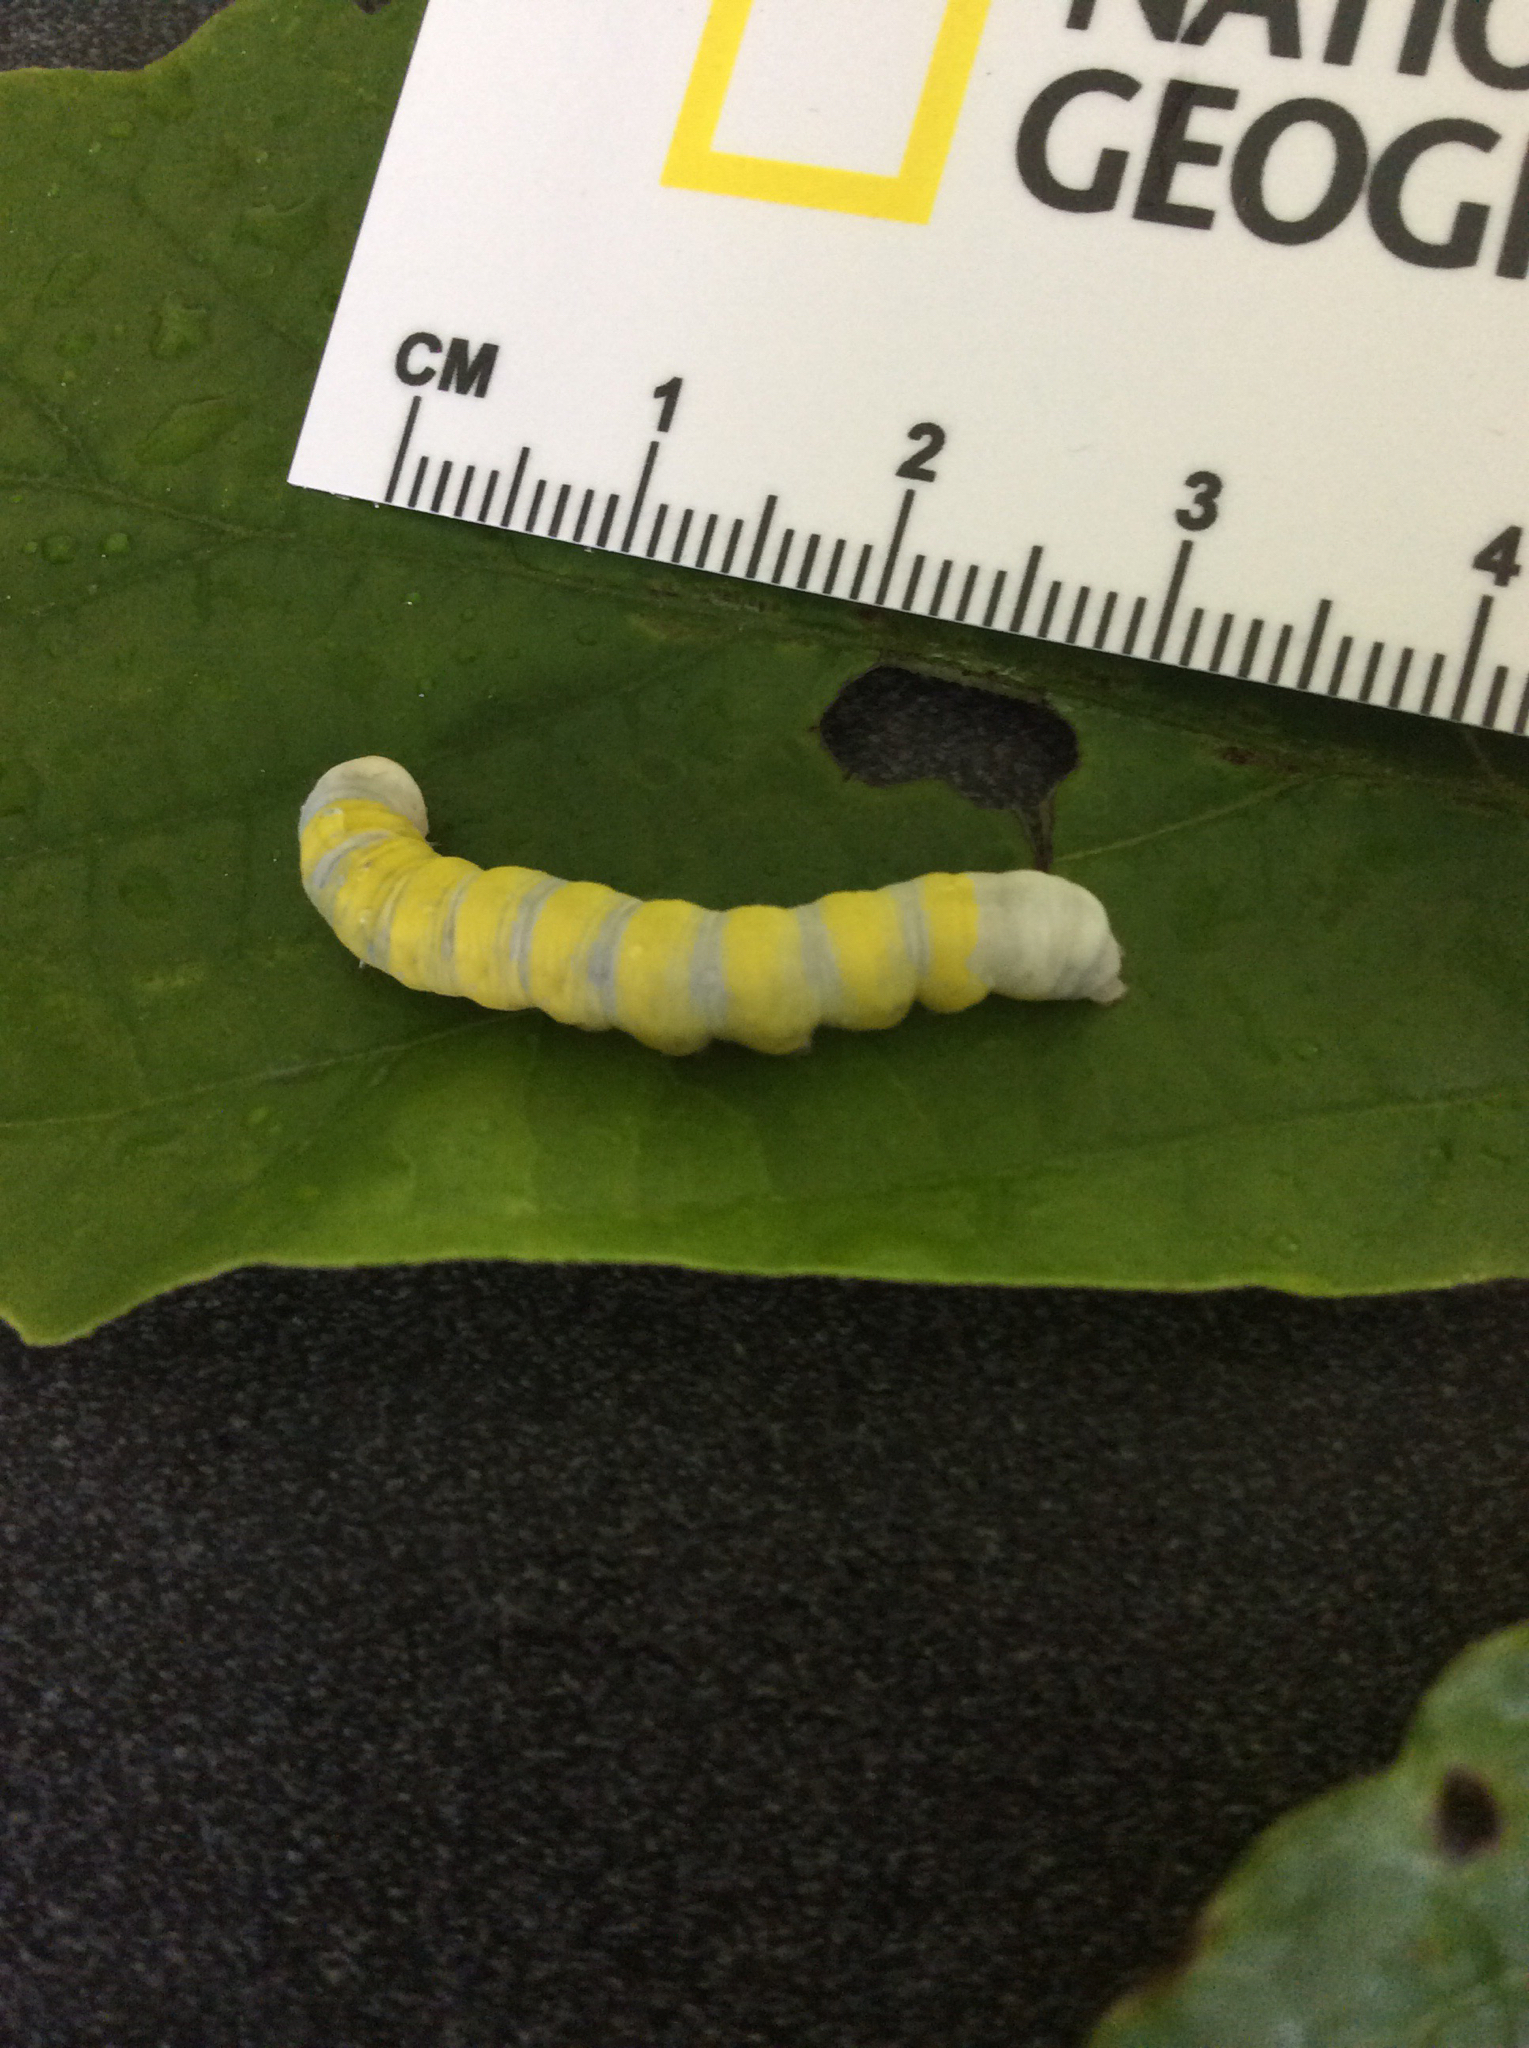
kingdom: Animalia
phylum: Arthropoda
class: Insecta
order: Lepidoptera
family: Noctuidae
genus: Pyreferra
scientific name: Pyreferra hesperidago
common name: Mustard sallow
